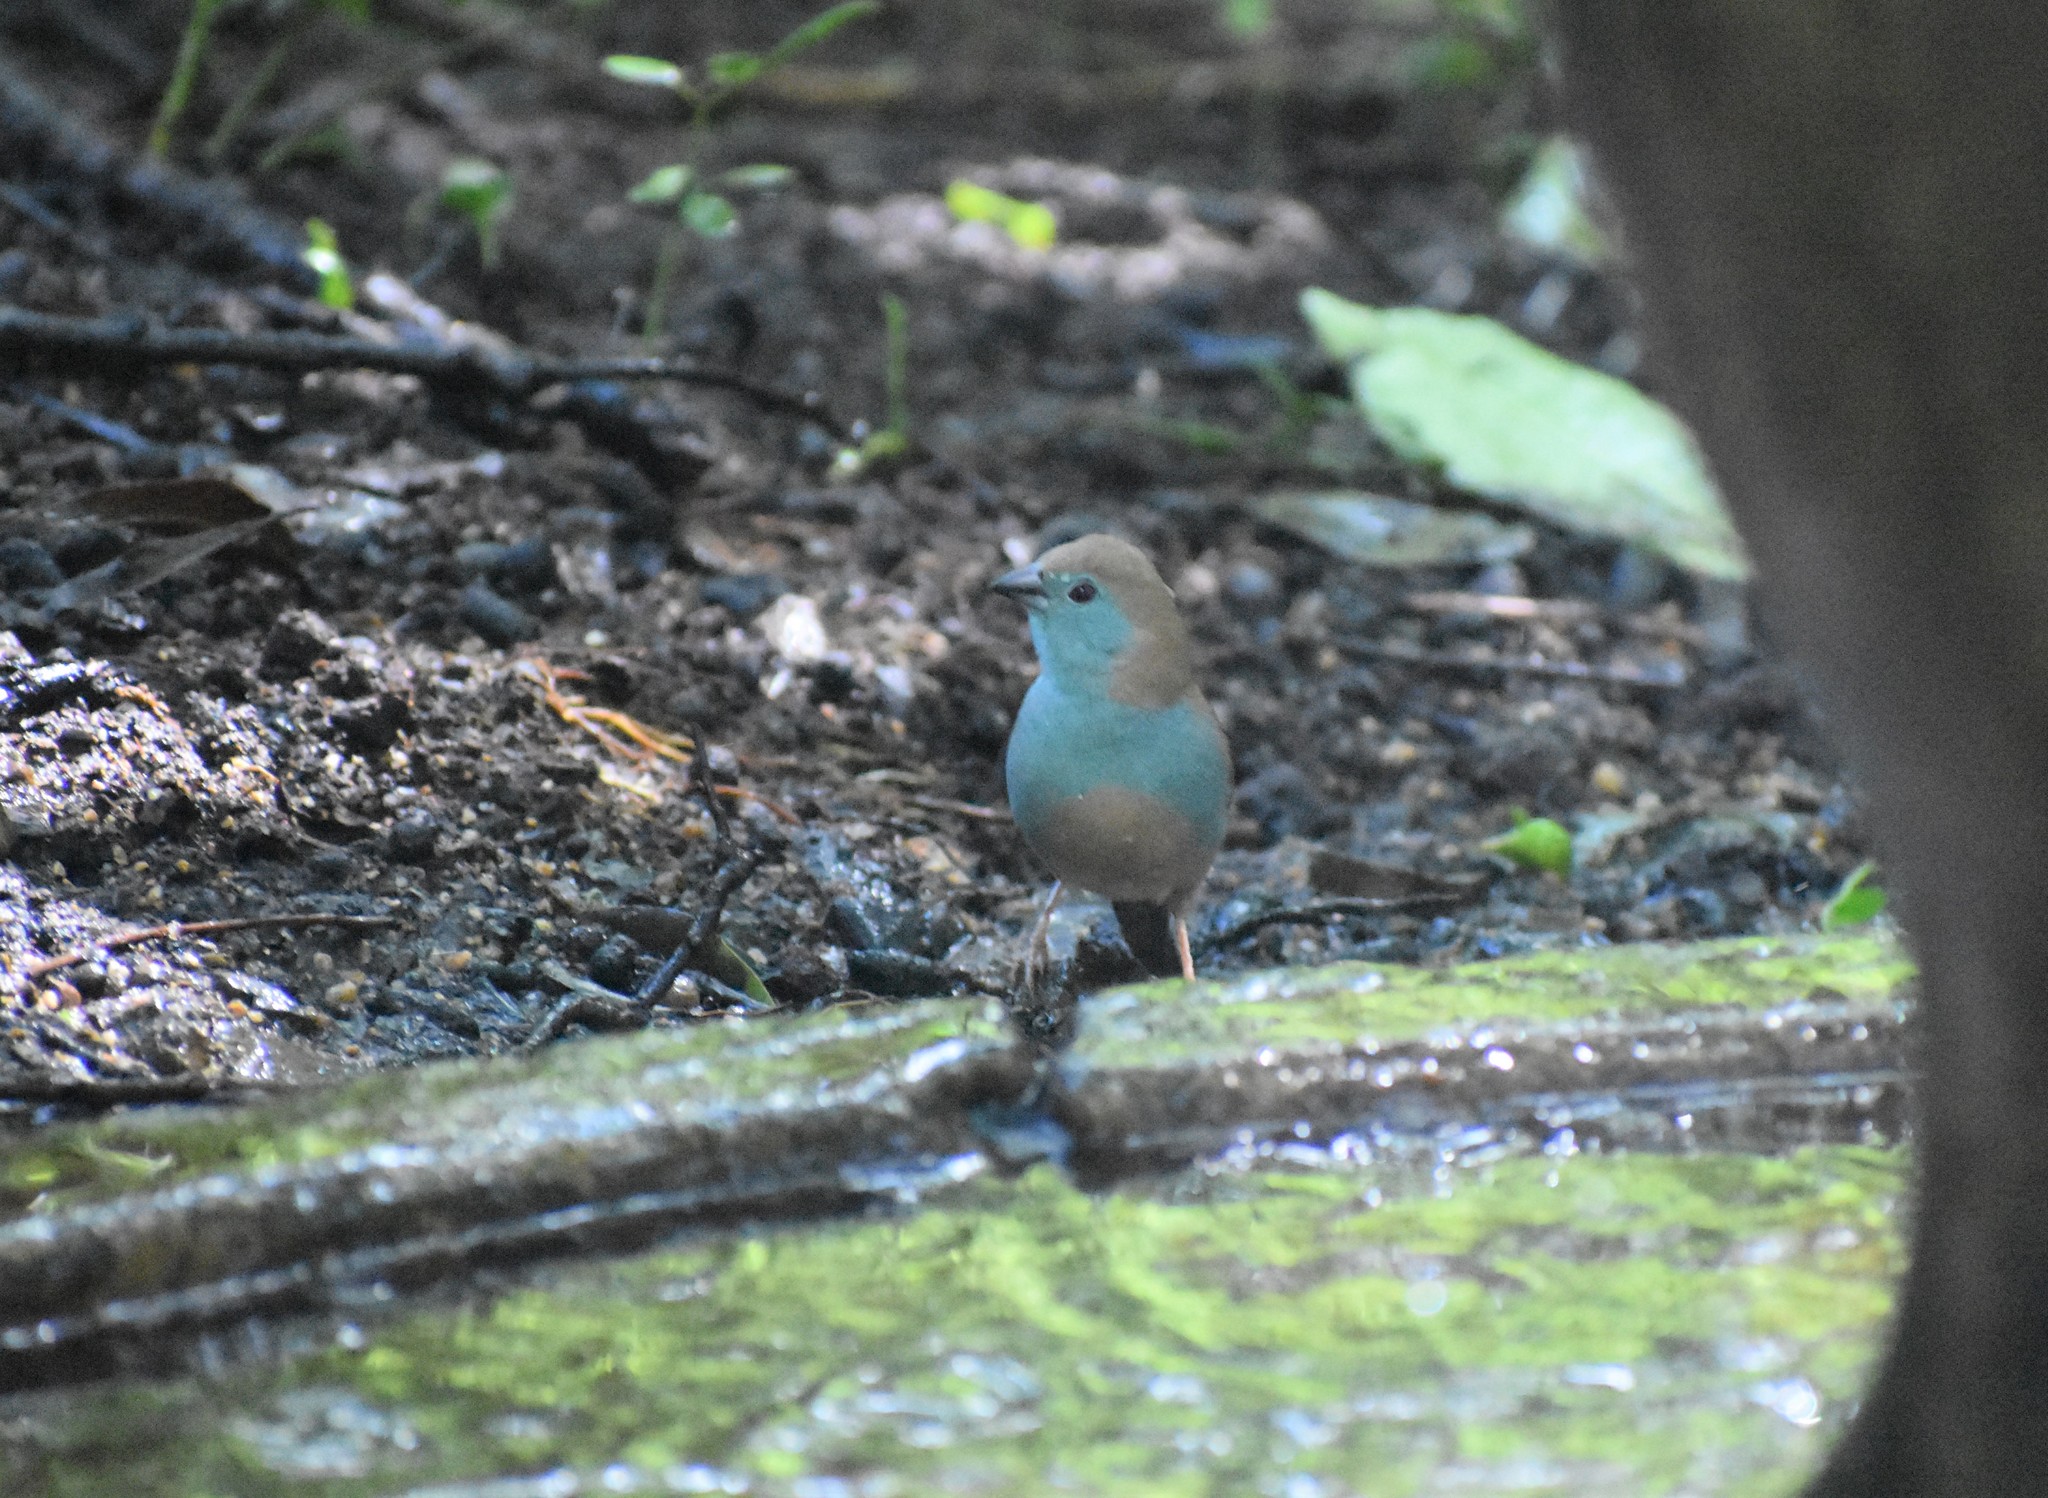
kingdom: Animalia
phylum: Chordata
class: Aves
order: Passeriformes
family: Estrildidae
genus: Uraeginthus
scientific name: Uraeginthus angolensis
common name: Blue waxbill
